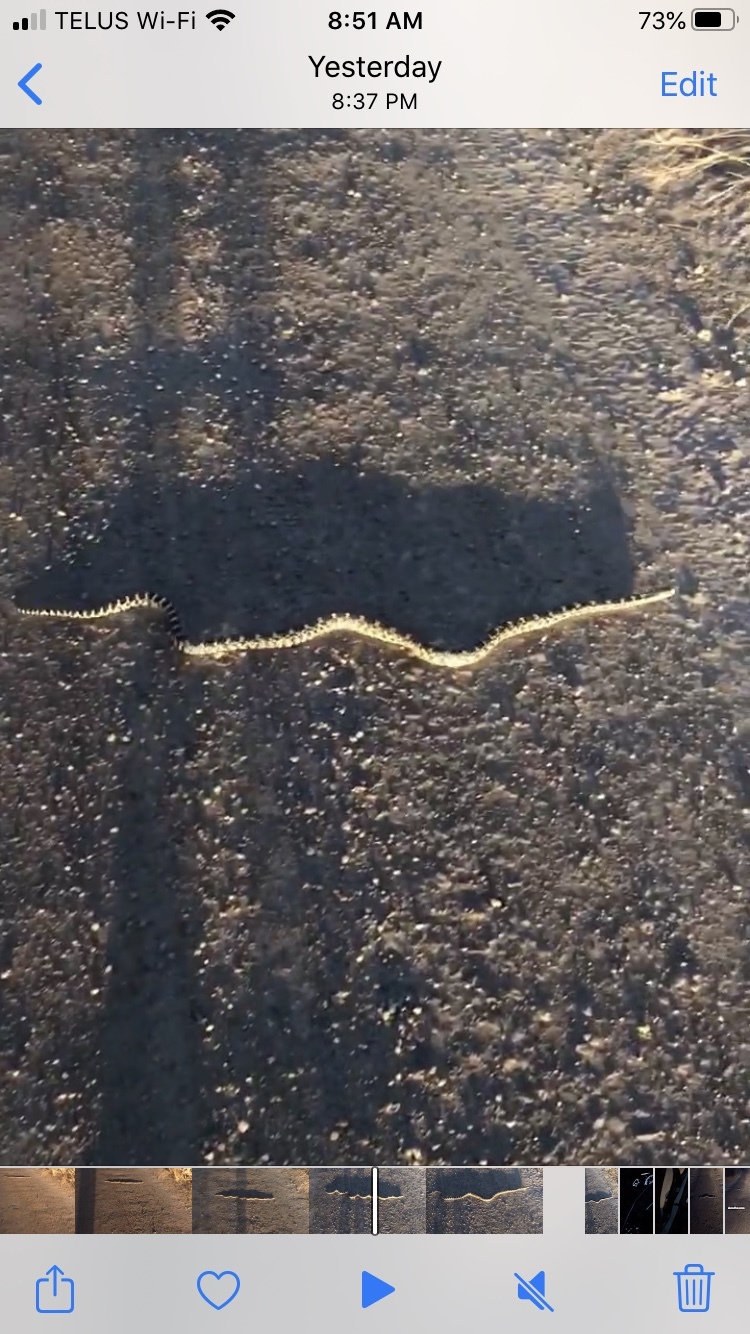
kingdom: Animalia
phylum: Chordata
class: Squamata
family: Colubridae
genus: Pituophis
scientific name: Pituophis catenifer
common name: Gopher snake
